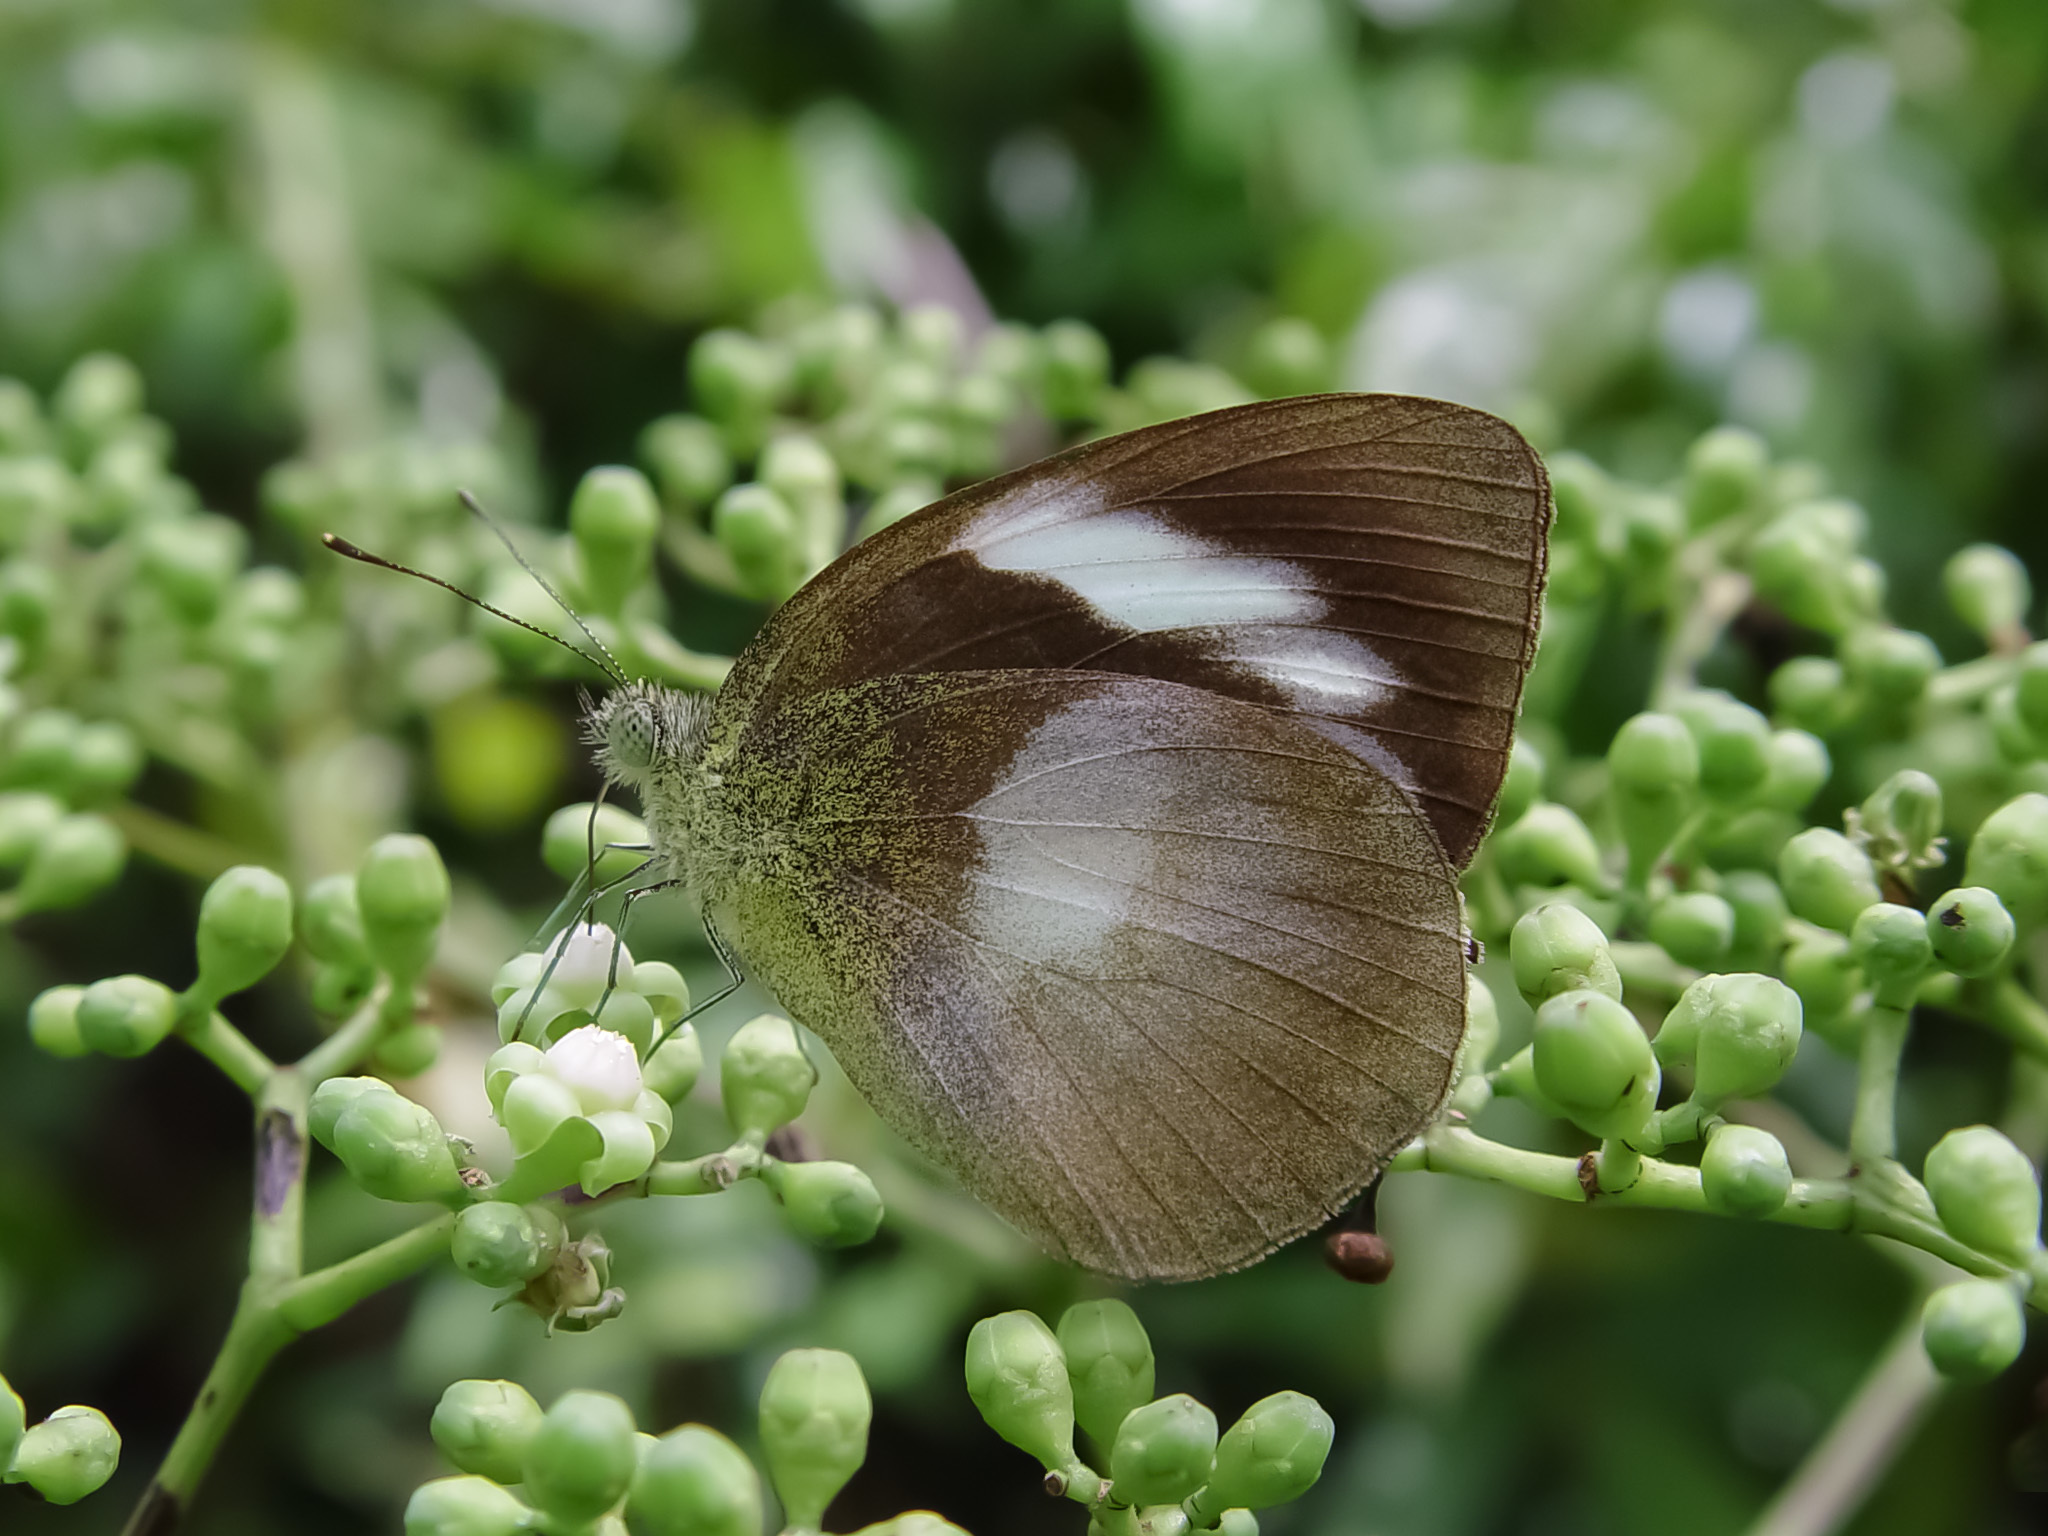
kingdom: Animalia
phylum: Arthropoda
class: Insecta
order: Lepidoptera
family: Pieridae
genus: Phrissura
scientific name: Phrissura
